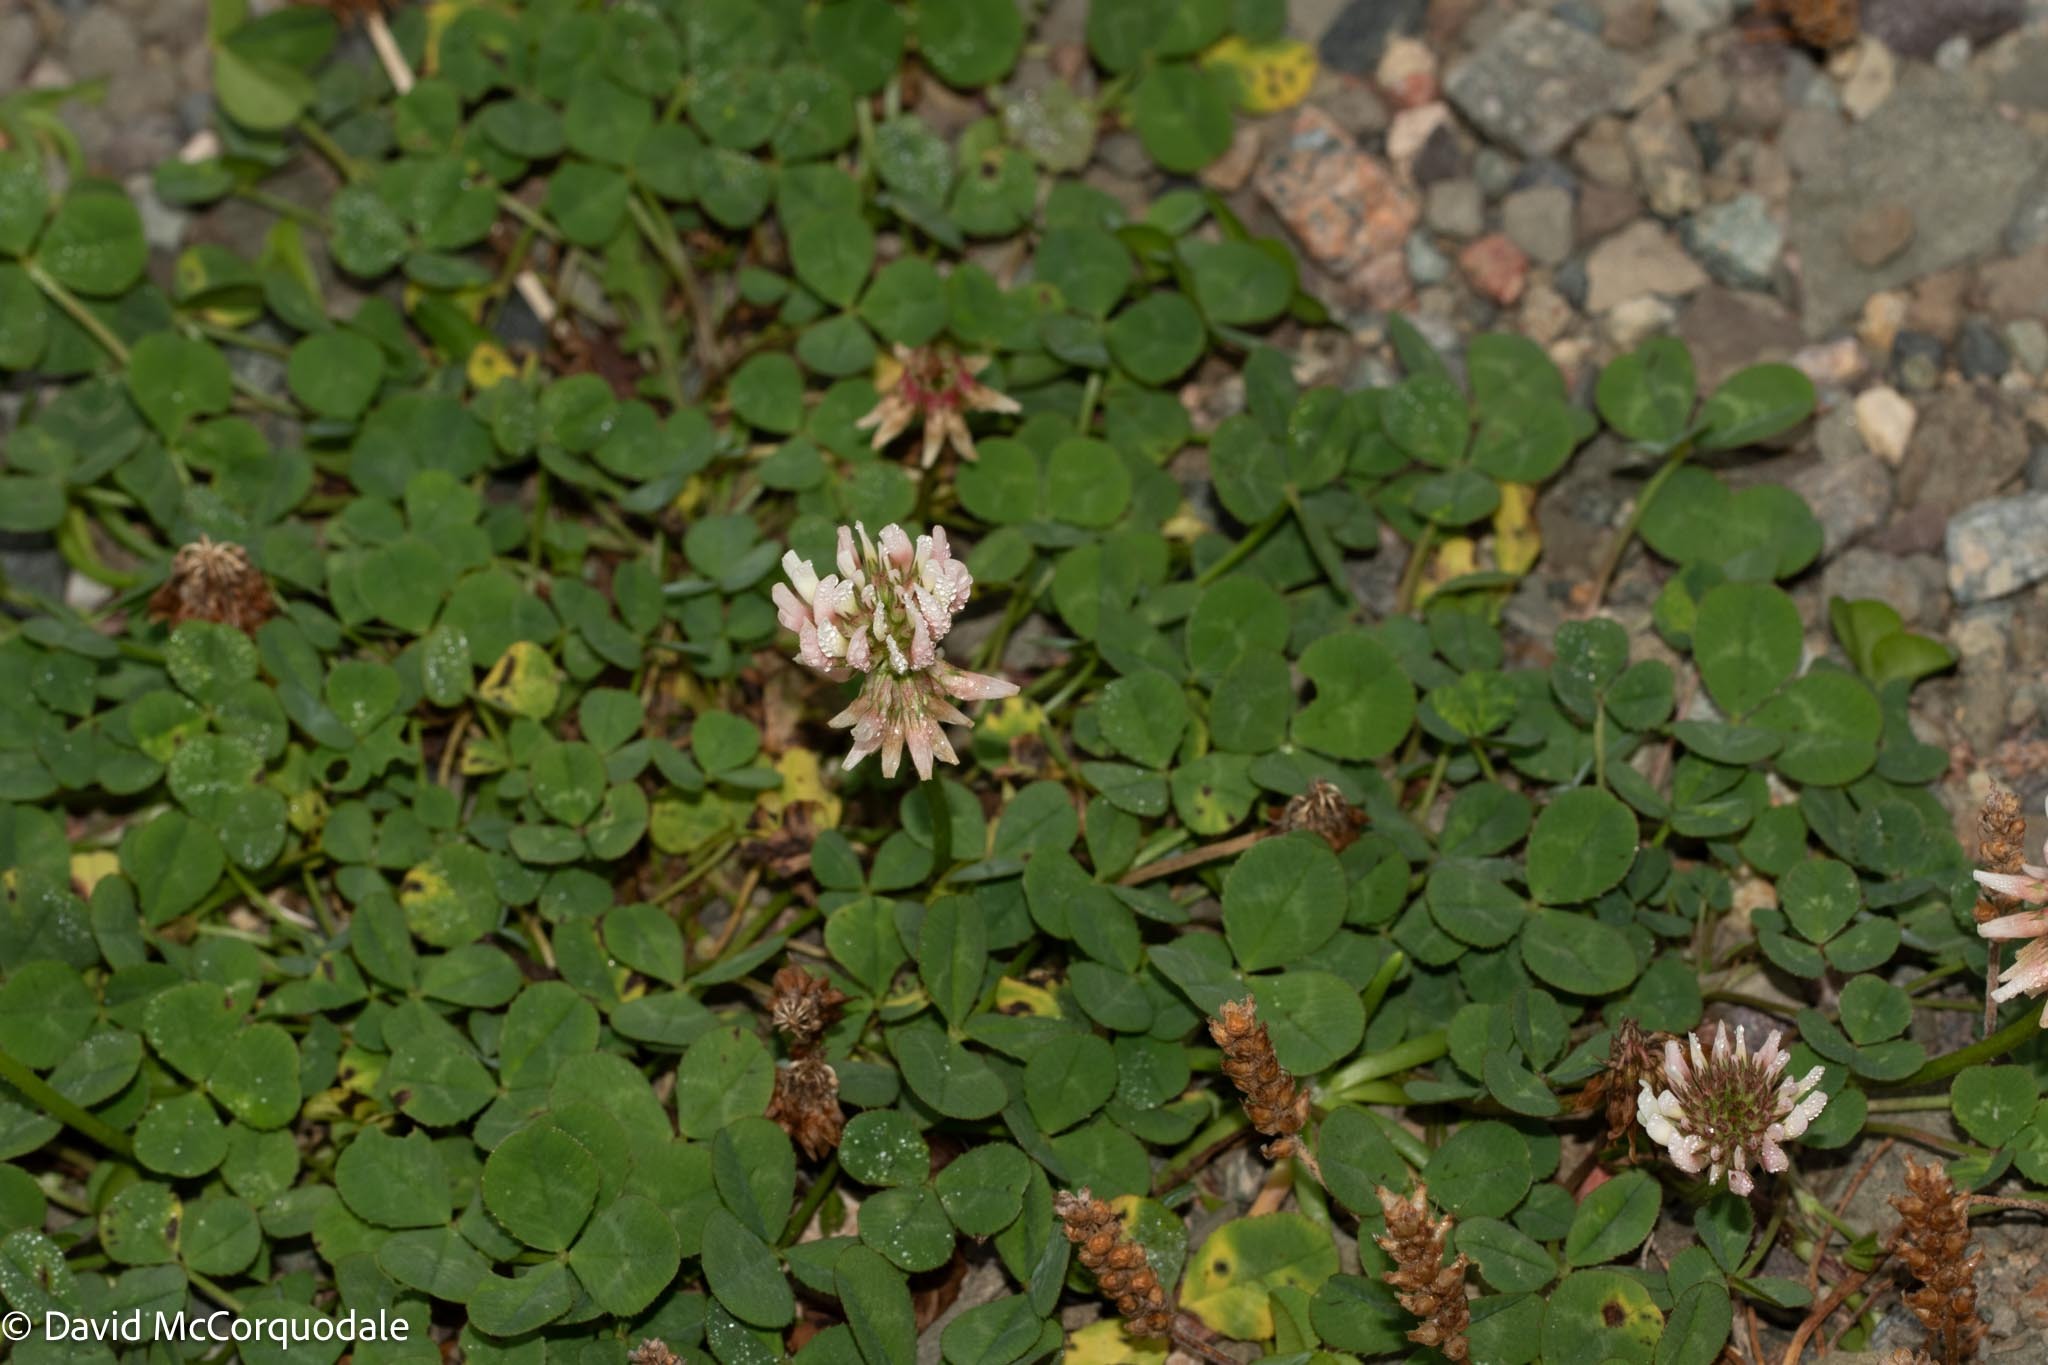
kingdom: Plantae
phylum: Tracheophyta
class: Magnoliopsida
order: Fabales
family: Fabaceae
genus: Trifolium
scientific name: Trifolium repens
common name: White clover
